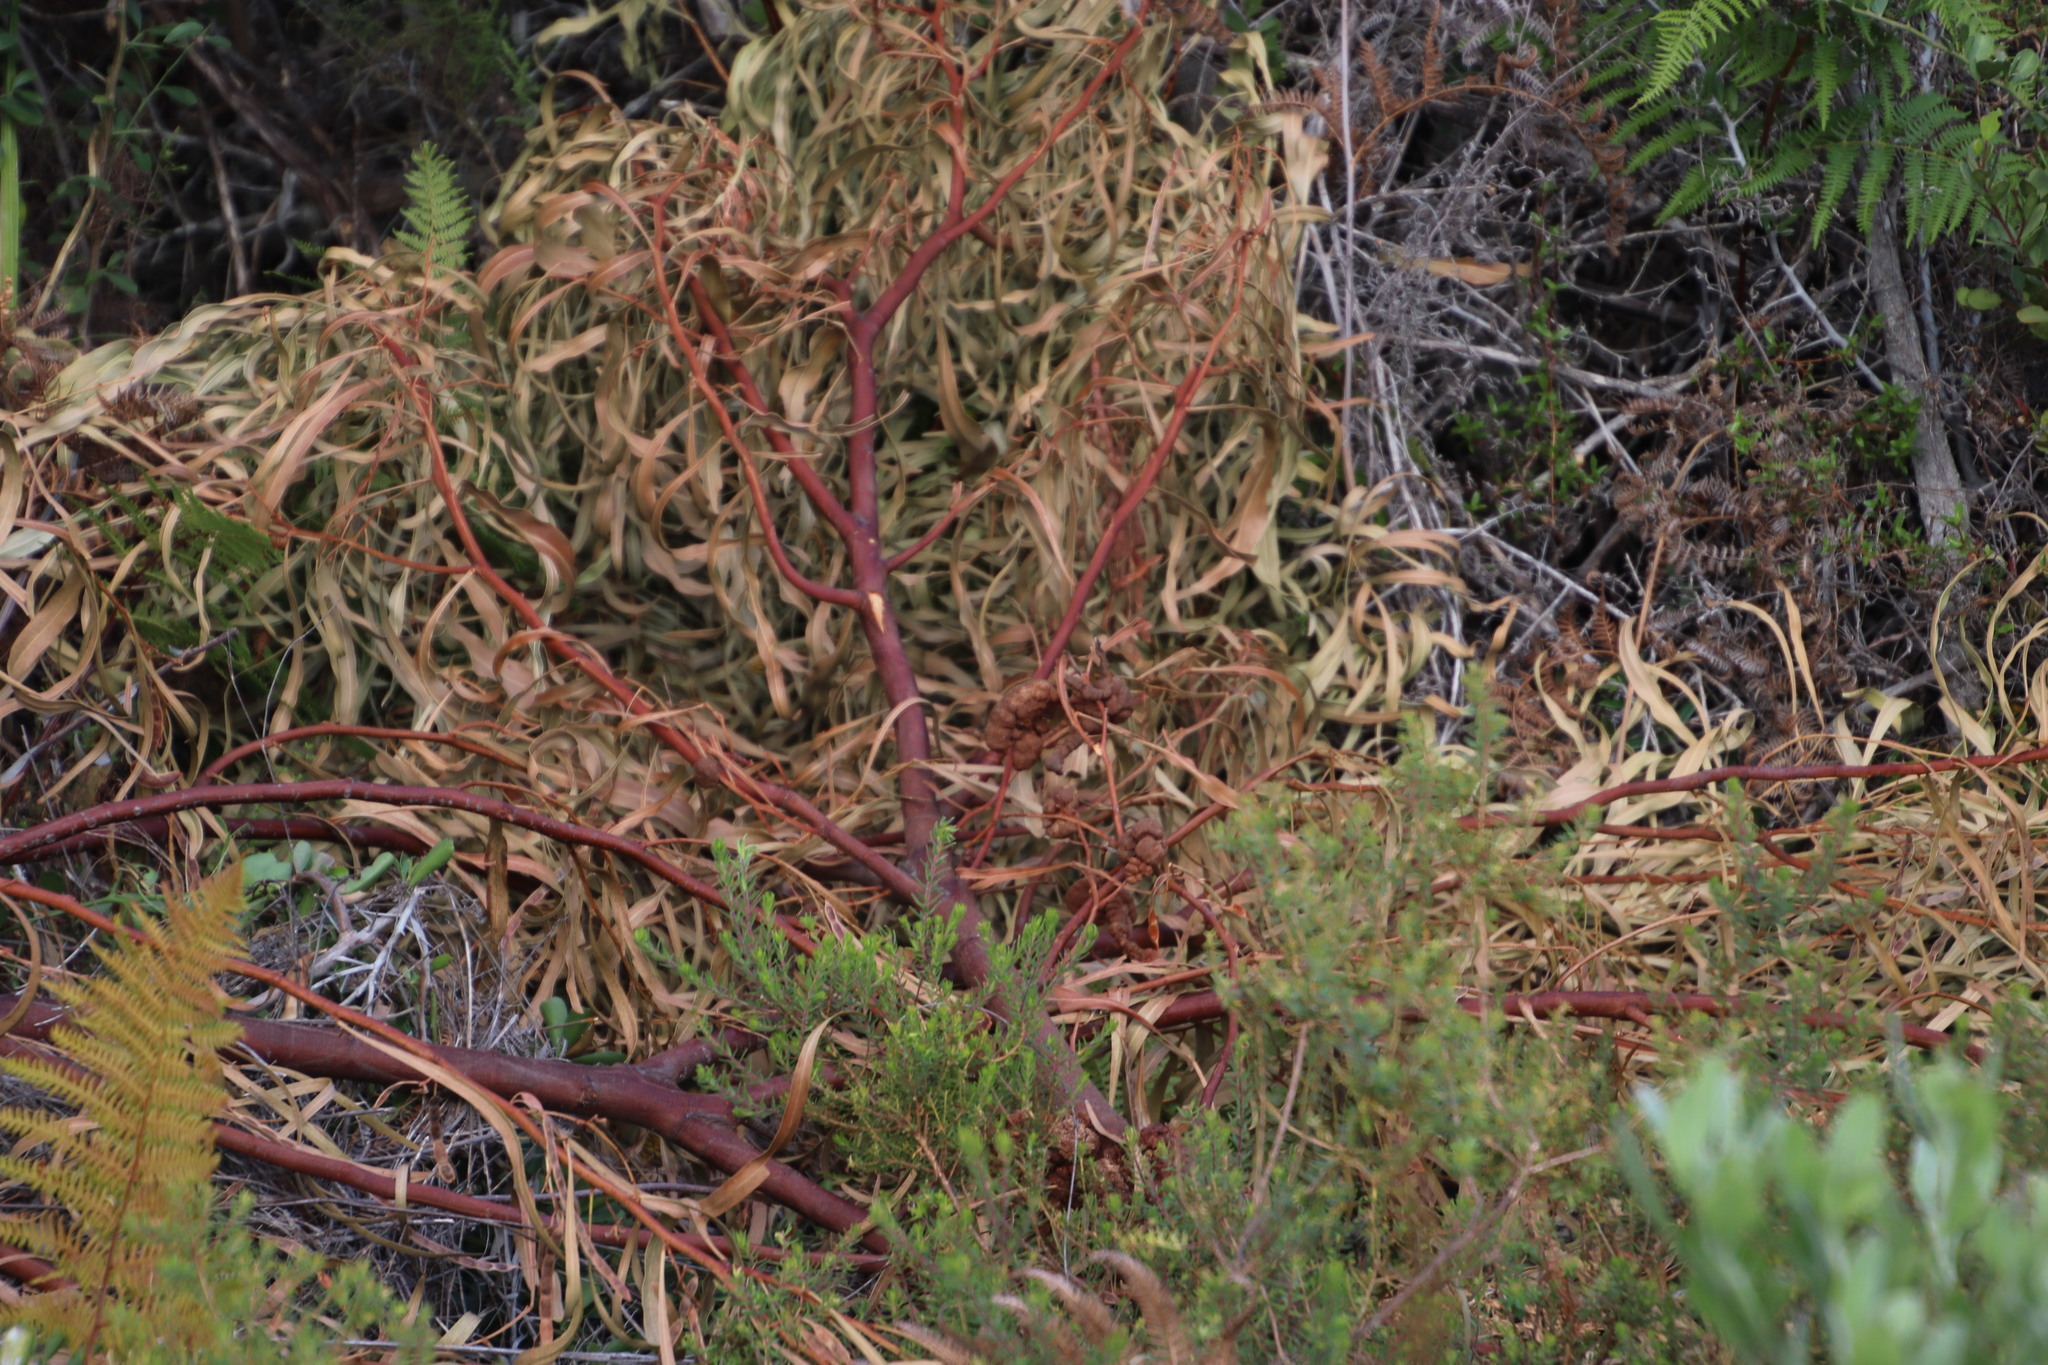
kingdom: Fungi
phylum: Basidiomycota
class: Pucciniomycetes
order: Pucciniales
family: Uromycladiaceae
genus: Uromycladium
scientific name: Uromycladium morrisii
